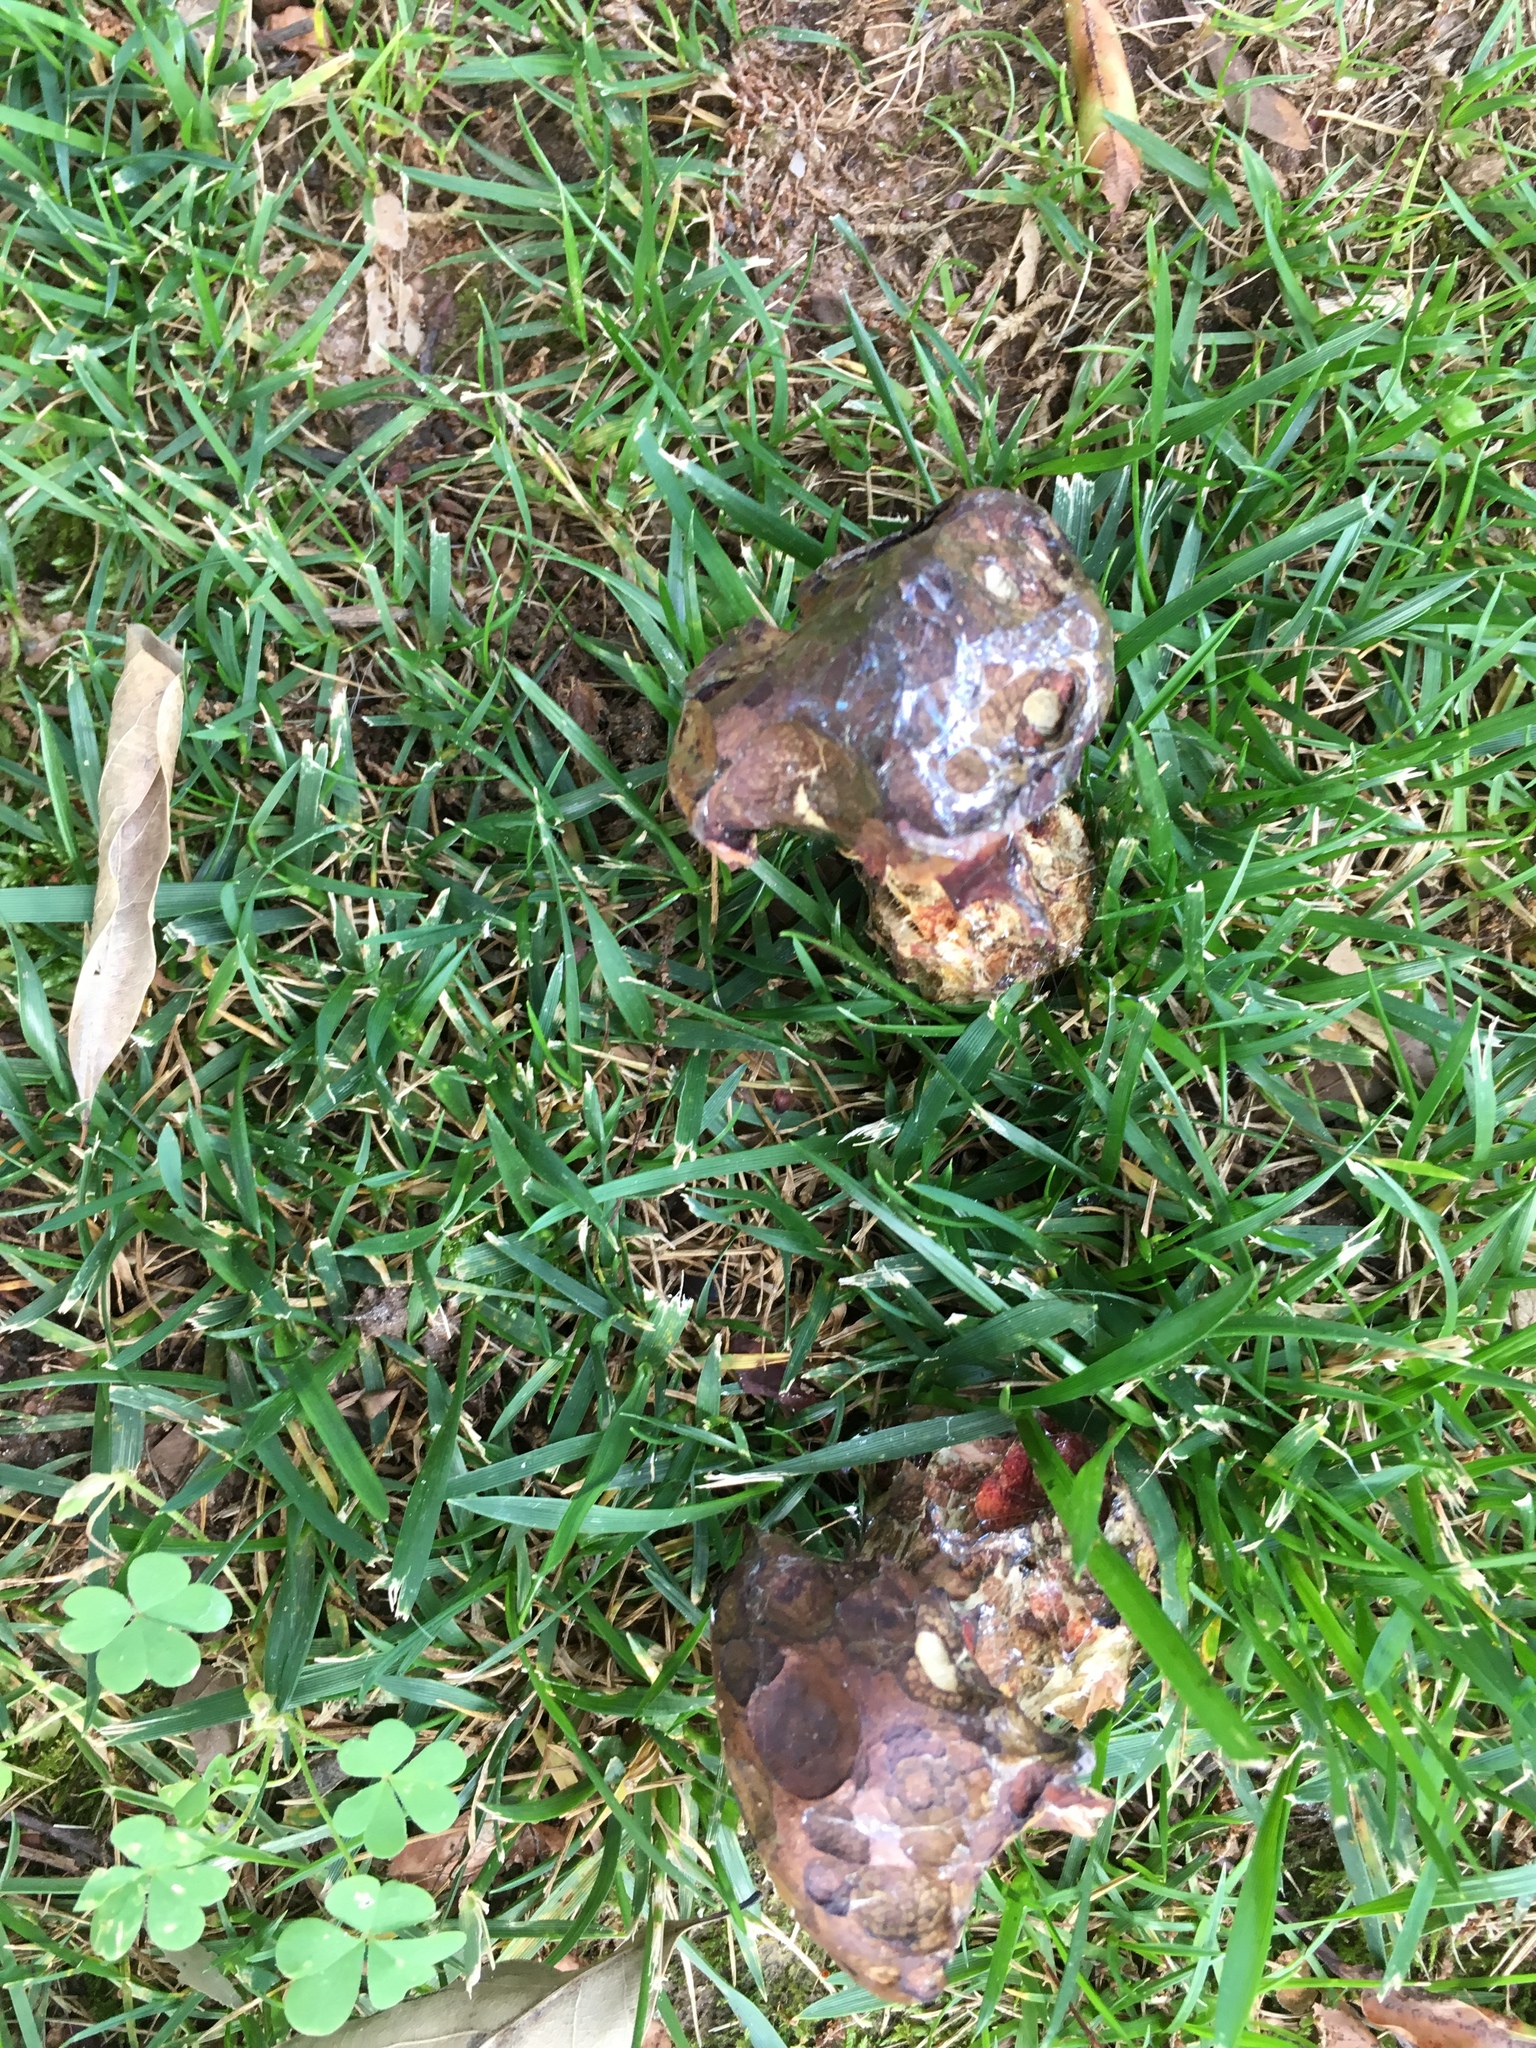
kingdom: Fungi
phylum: Basidiomycota
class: Pucciniomycetes
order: Pucciniales
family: Gymnosporangiaceae
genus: Gymnosporangium
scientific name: Gymnosporangium juniperi-virginianae
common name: Juniper-apple rust
